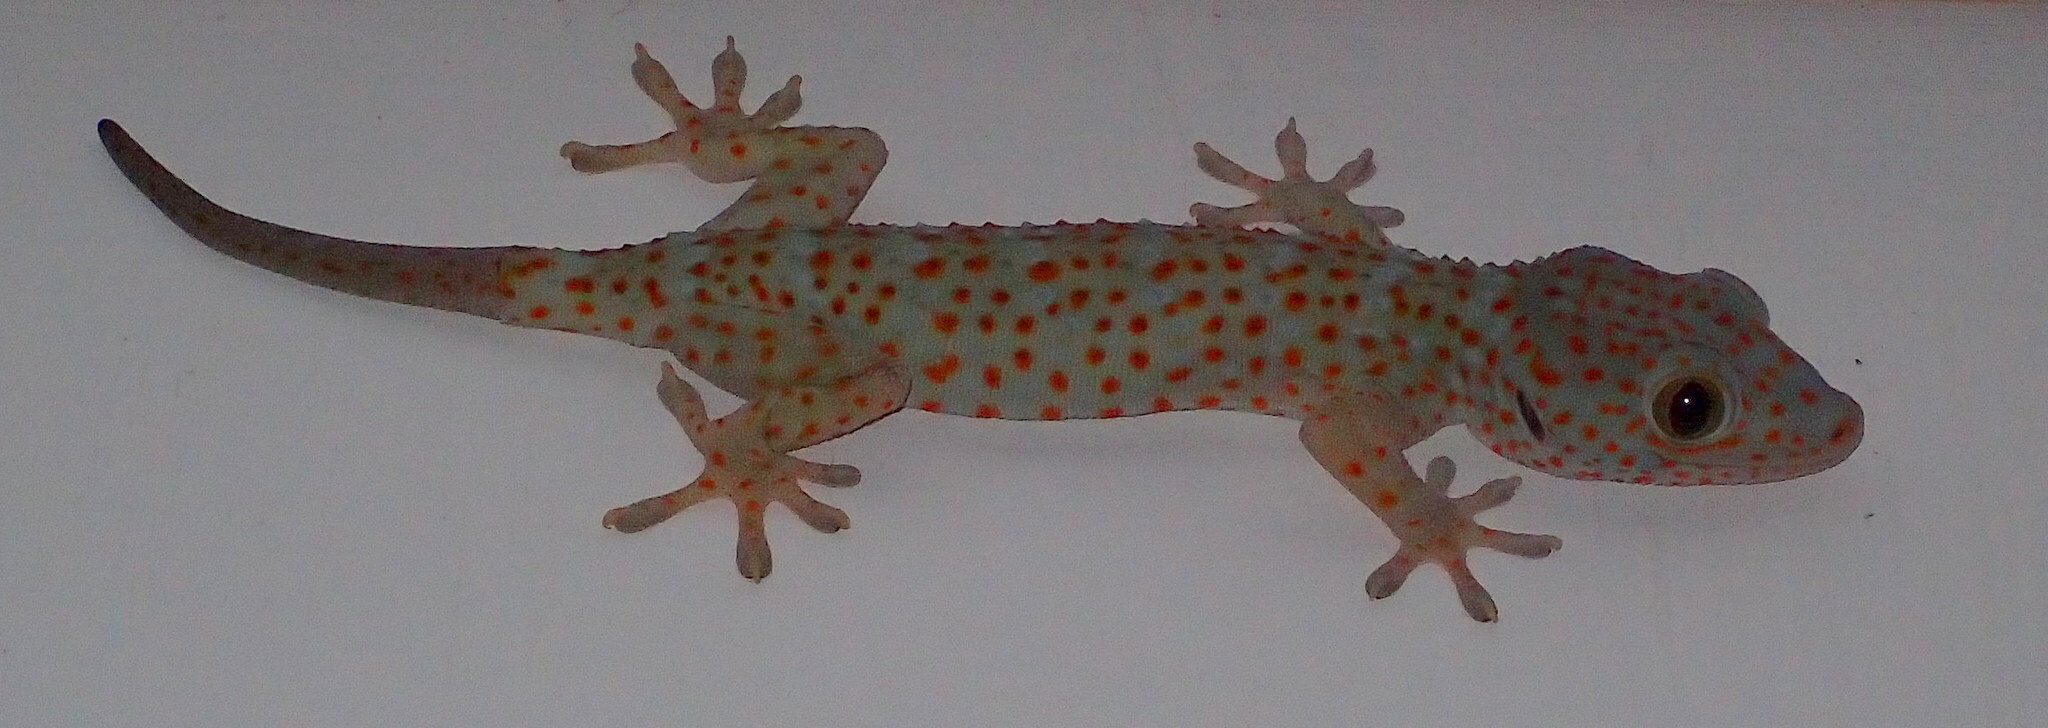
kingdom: Animalia
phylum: Chordata
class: Squamata
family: Gekkonidae
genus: Gekko
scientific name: Gekko gecko
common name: Tokay gecko
